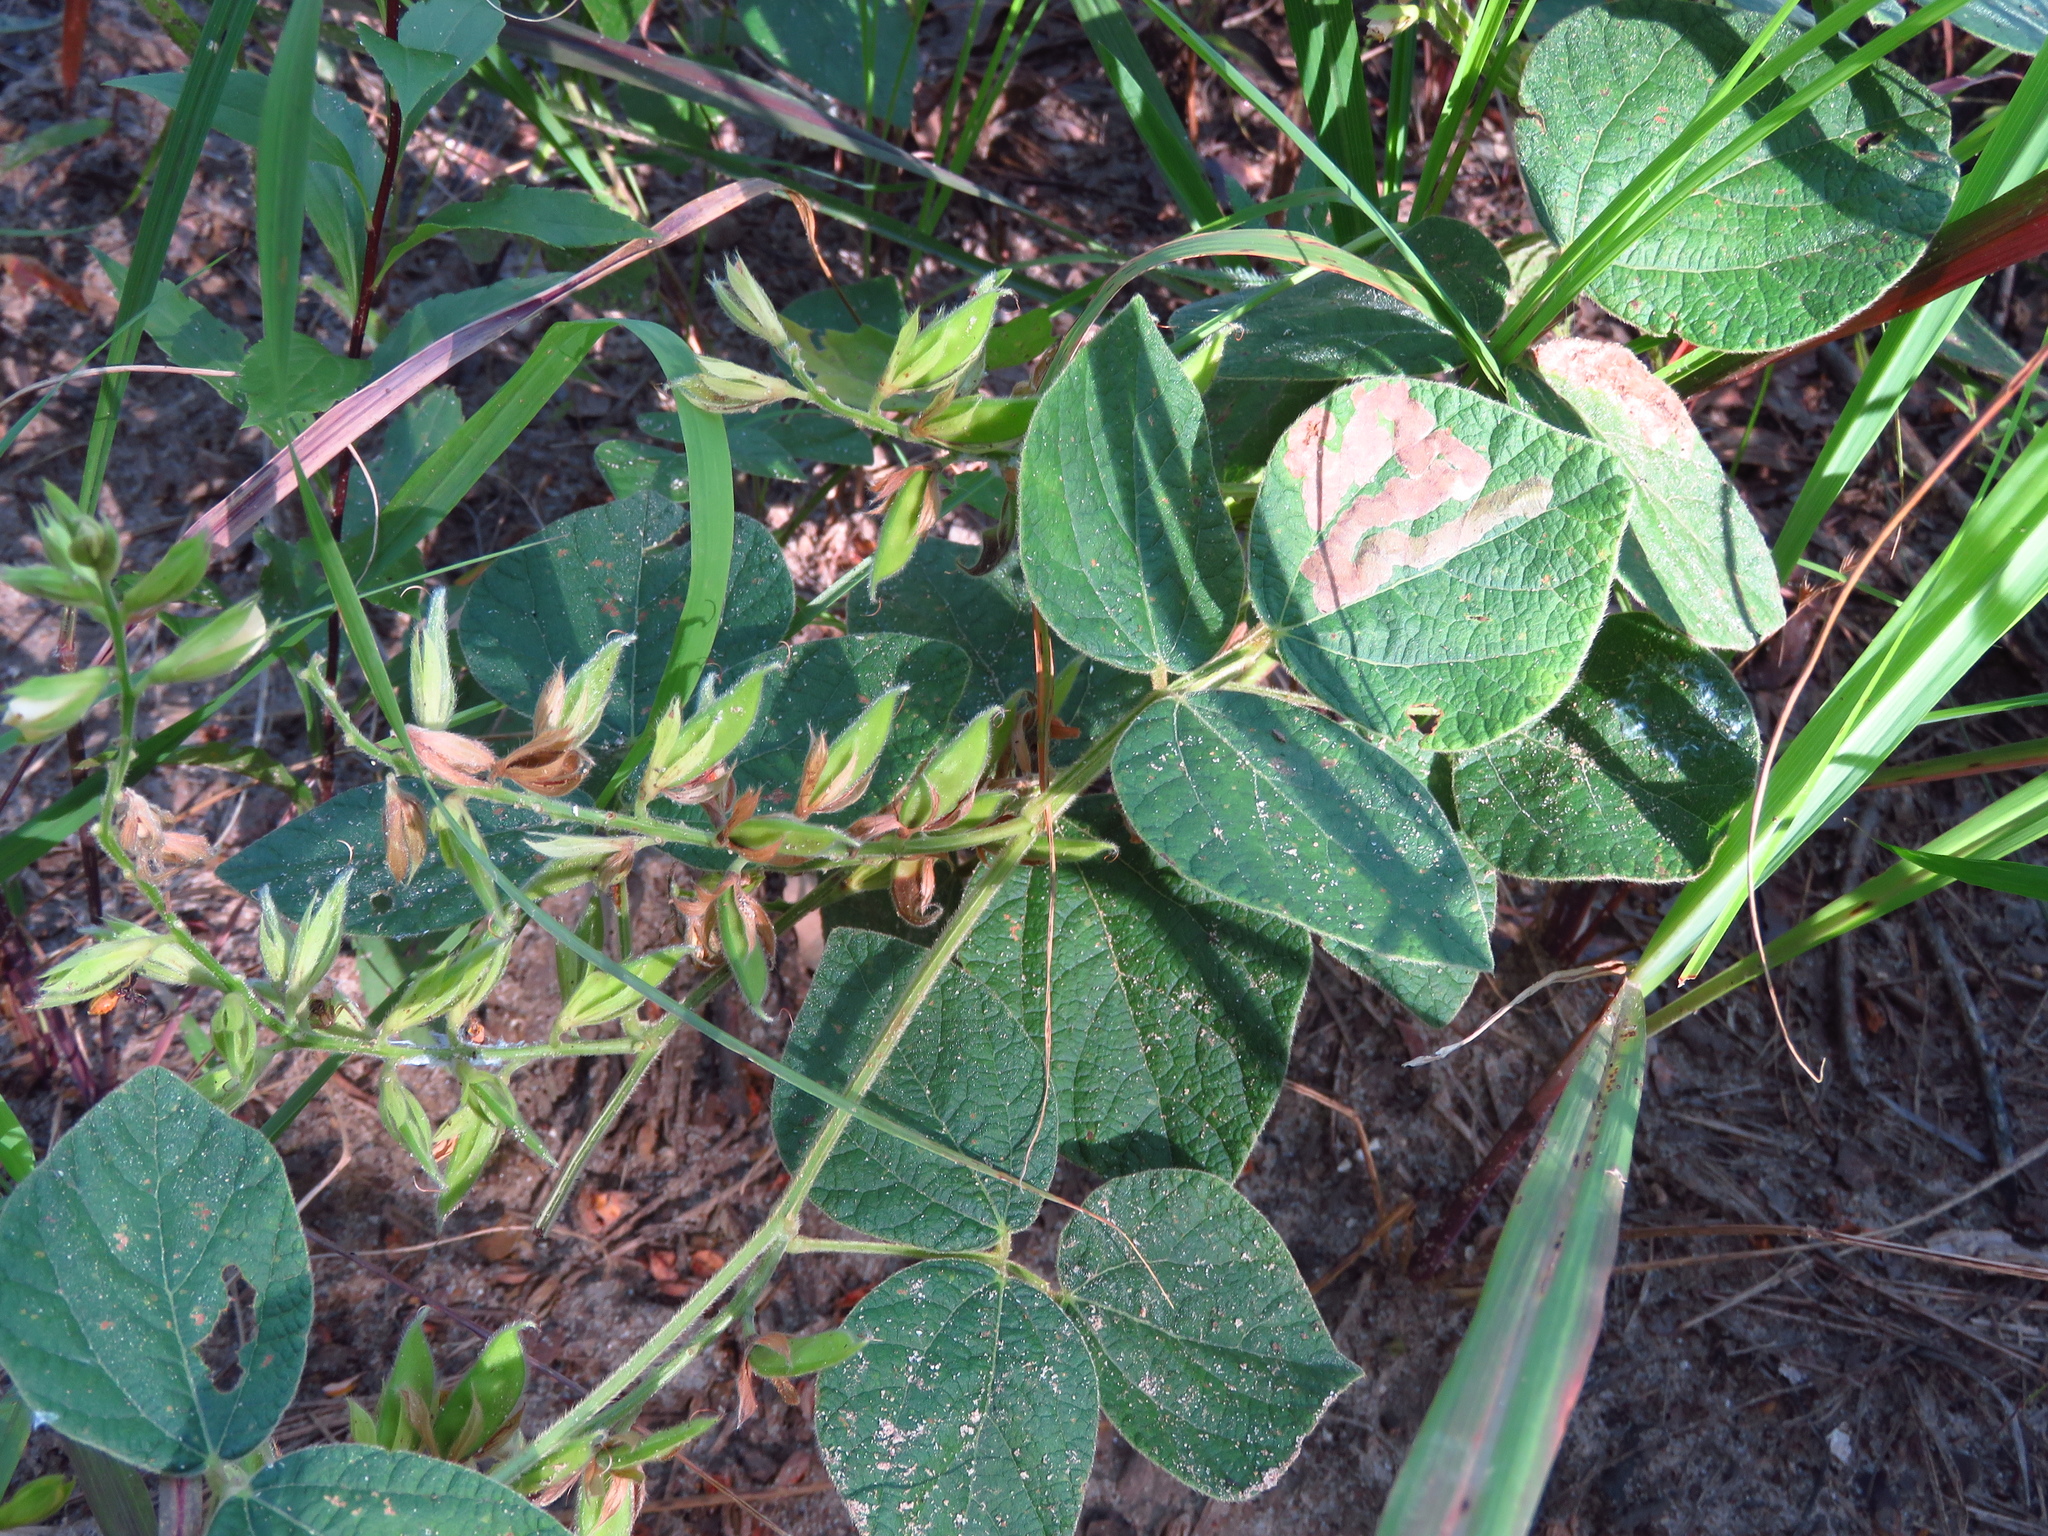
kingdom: Plantae
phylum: Tracheophyta
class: Magnoliopsida
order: Fabales
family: Fabaceae
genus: Rhynchosia
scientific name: Rhynchosia latifolia
